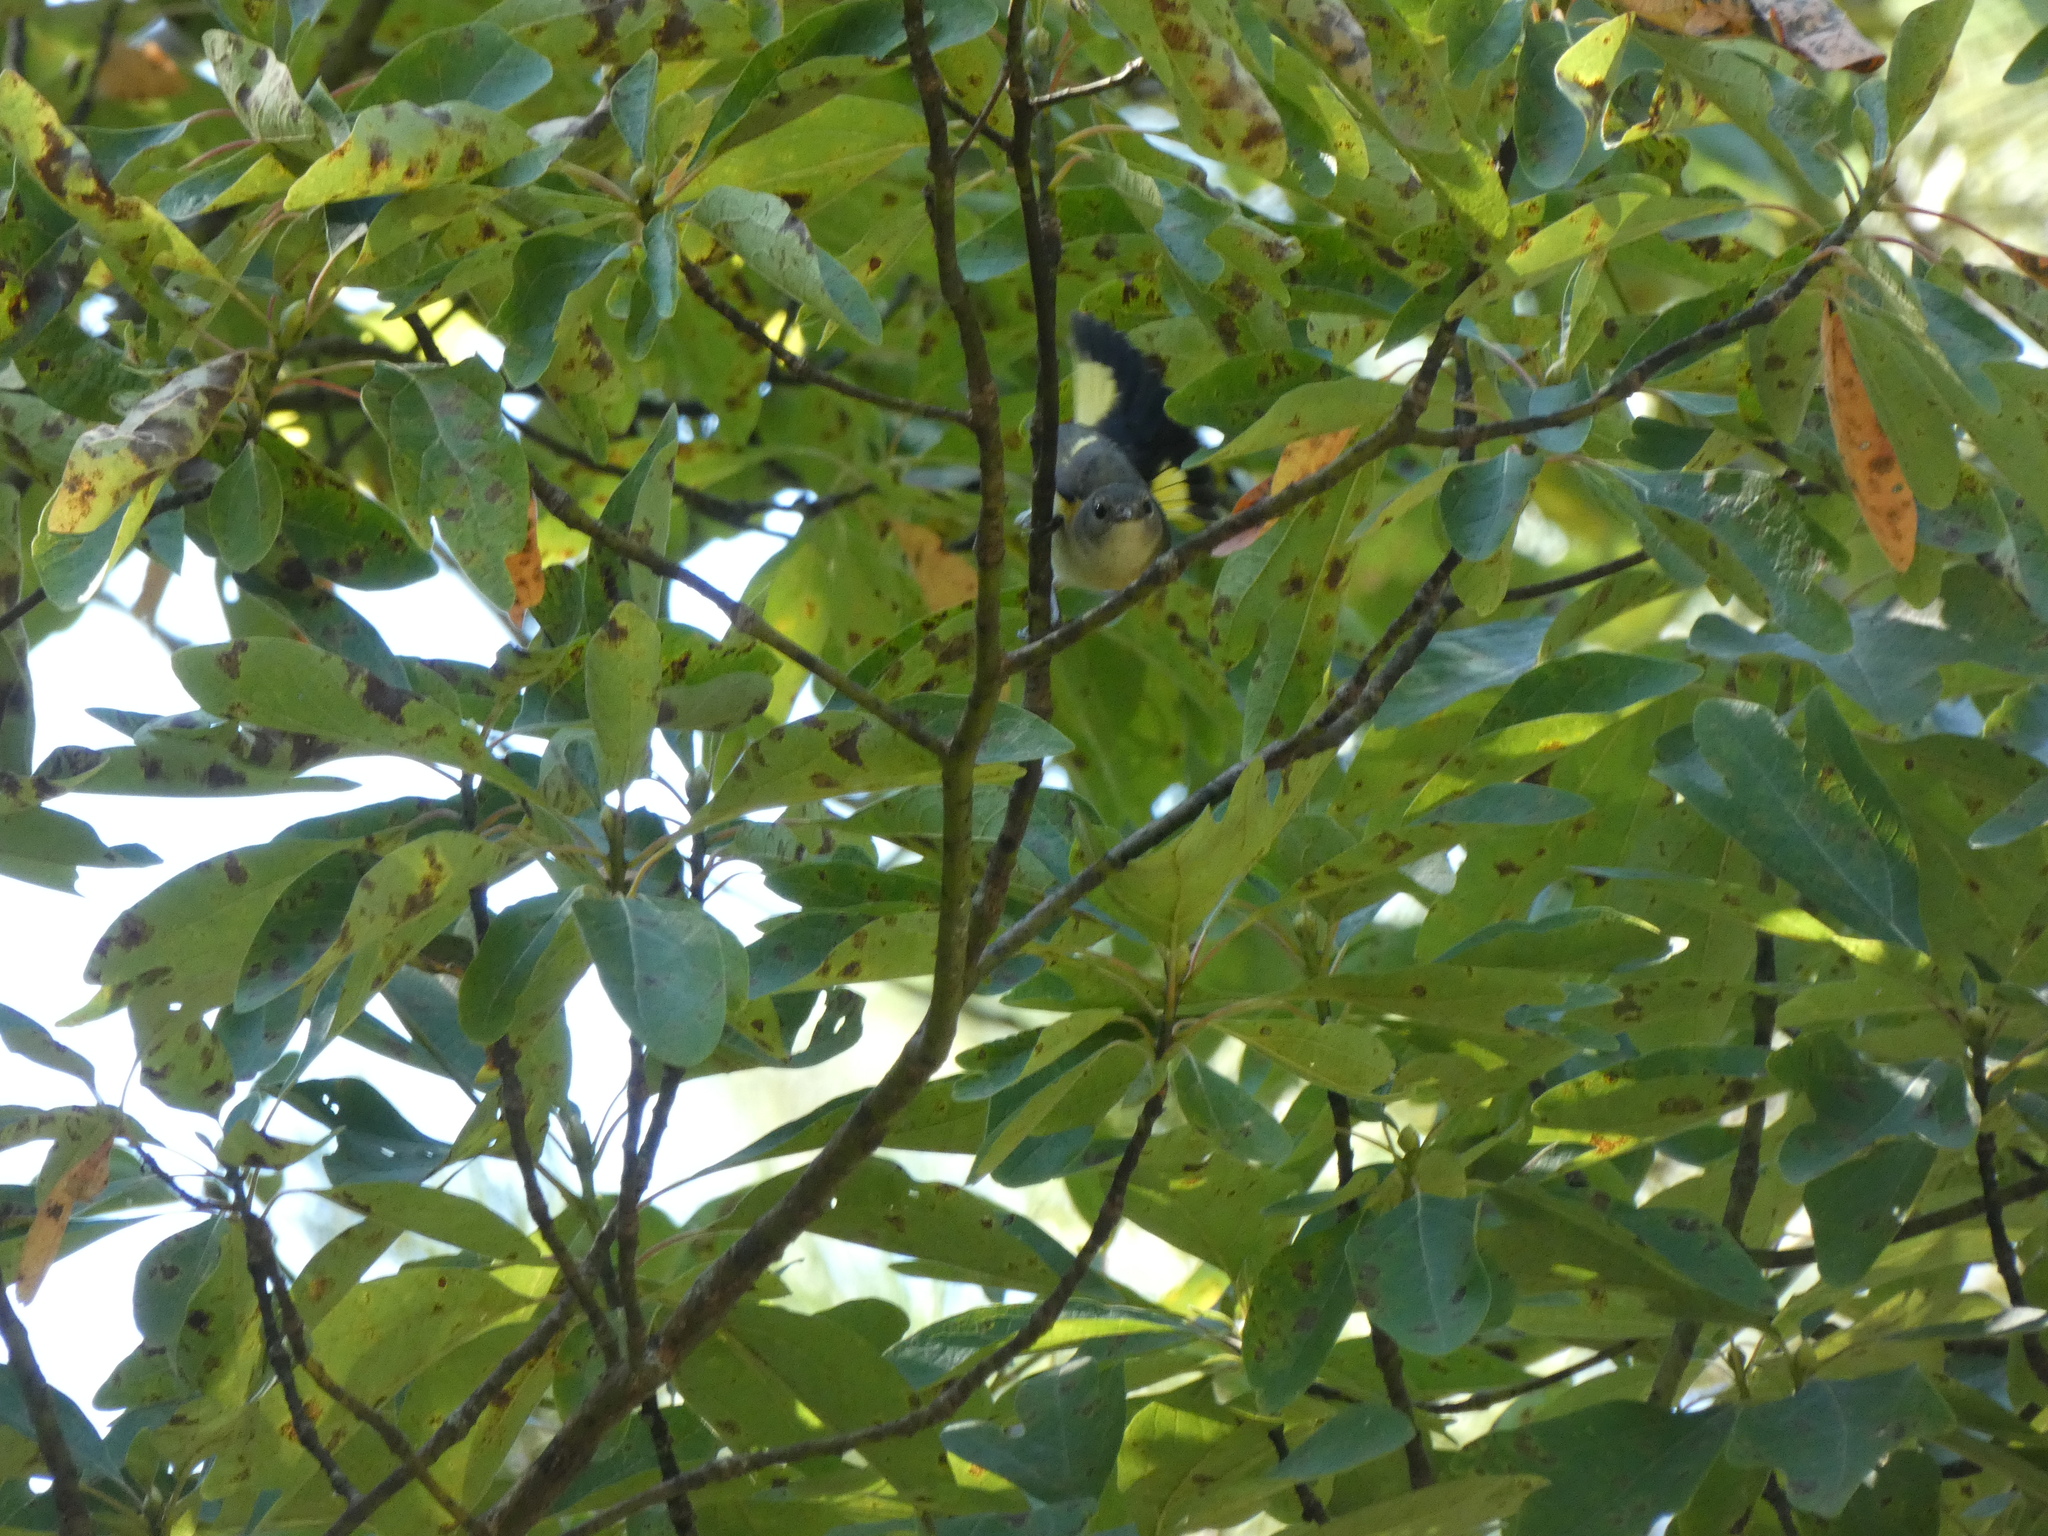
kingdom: Animalia
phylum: Chordata
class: Aves
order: Passeriformes
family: Parulidae
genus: Setophaga
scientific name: Setophaga ruticilla
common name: American redstart
